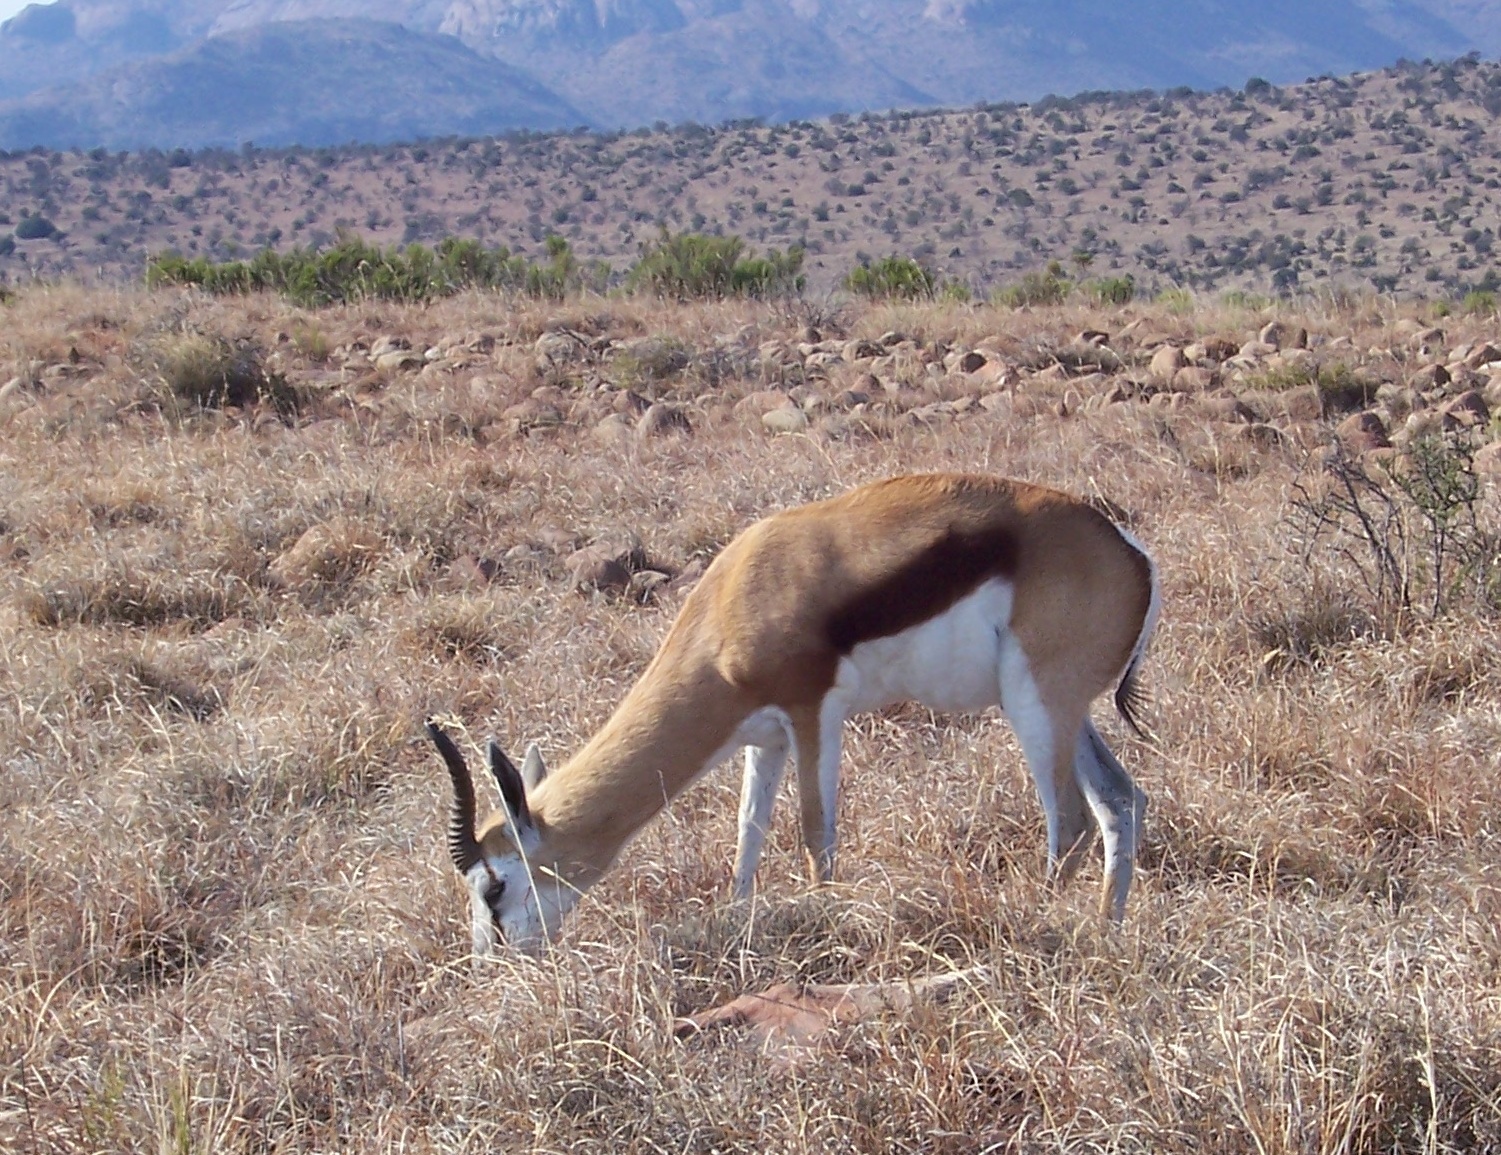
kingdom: Animalia
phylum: Chordata
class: Mammalia
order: Artiodactyla
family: Bovidae
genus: Antidorcas
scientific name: Antidorcas marsupialis
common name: Springbok
